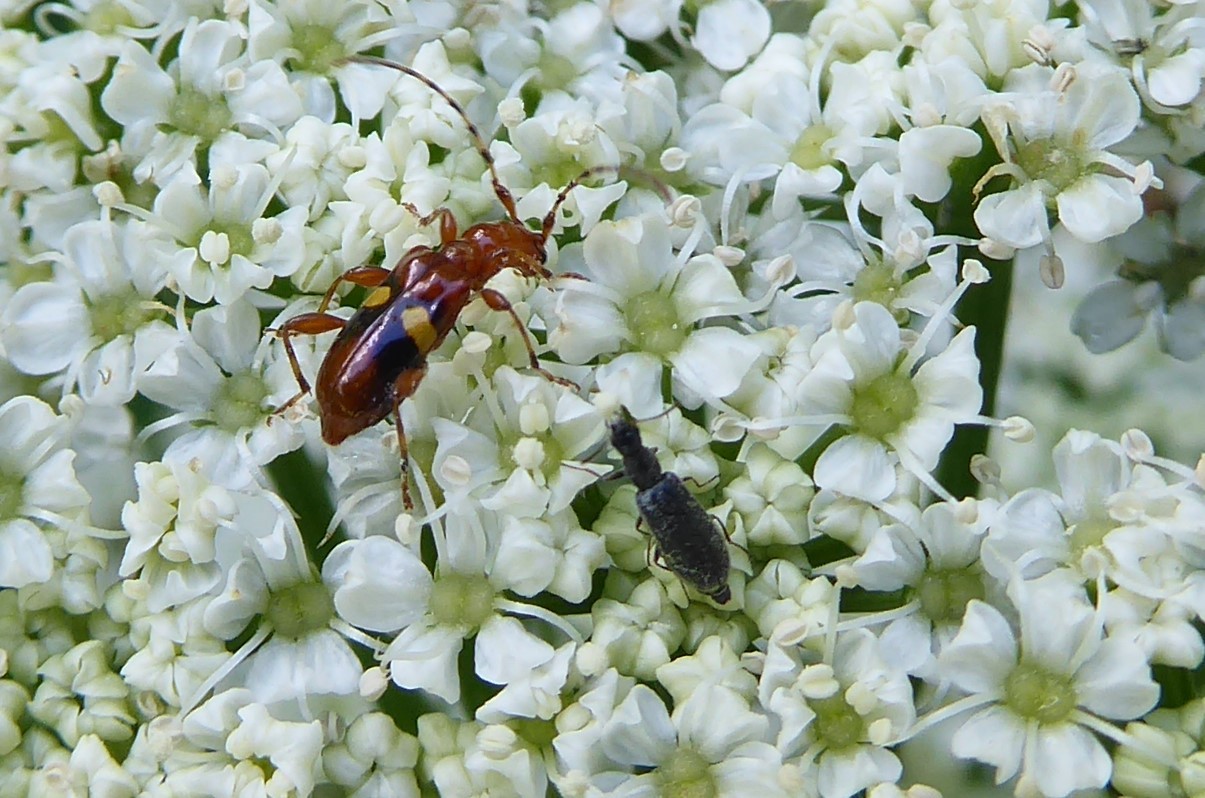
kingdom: Animalia
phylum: Arthropoda
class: Insecta
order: Coleoptera
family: Cerambycidae
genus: Zorion
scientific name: Zorion australe
